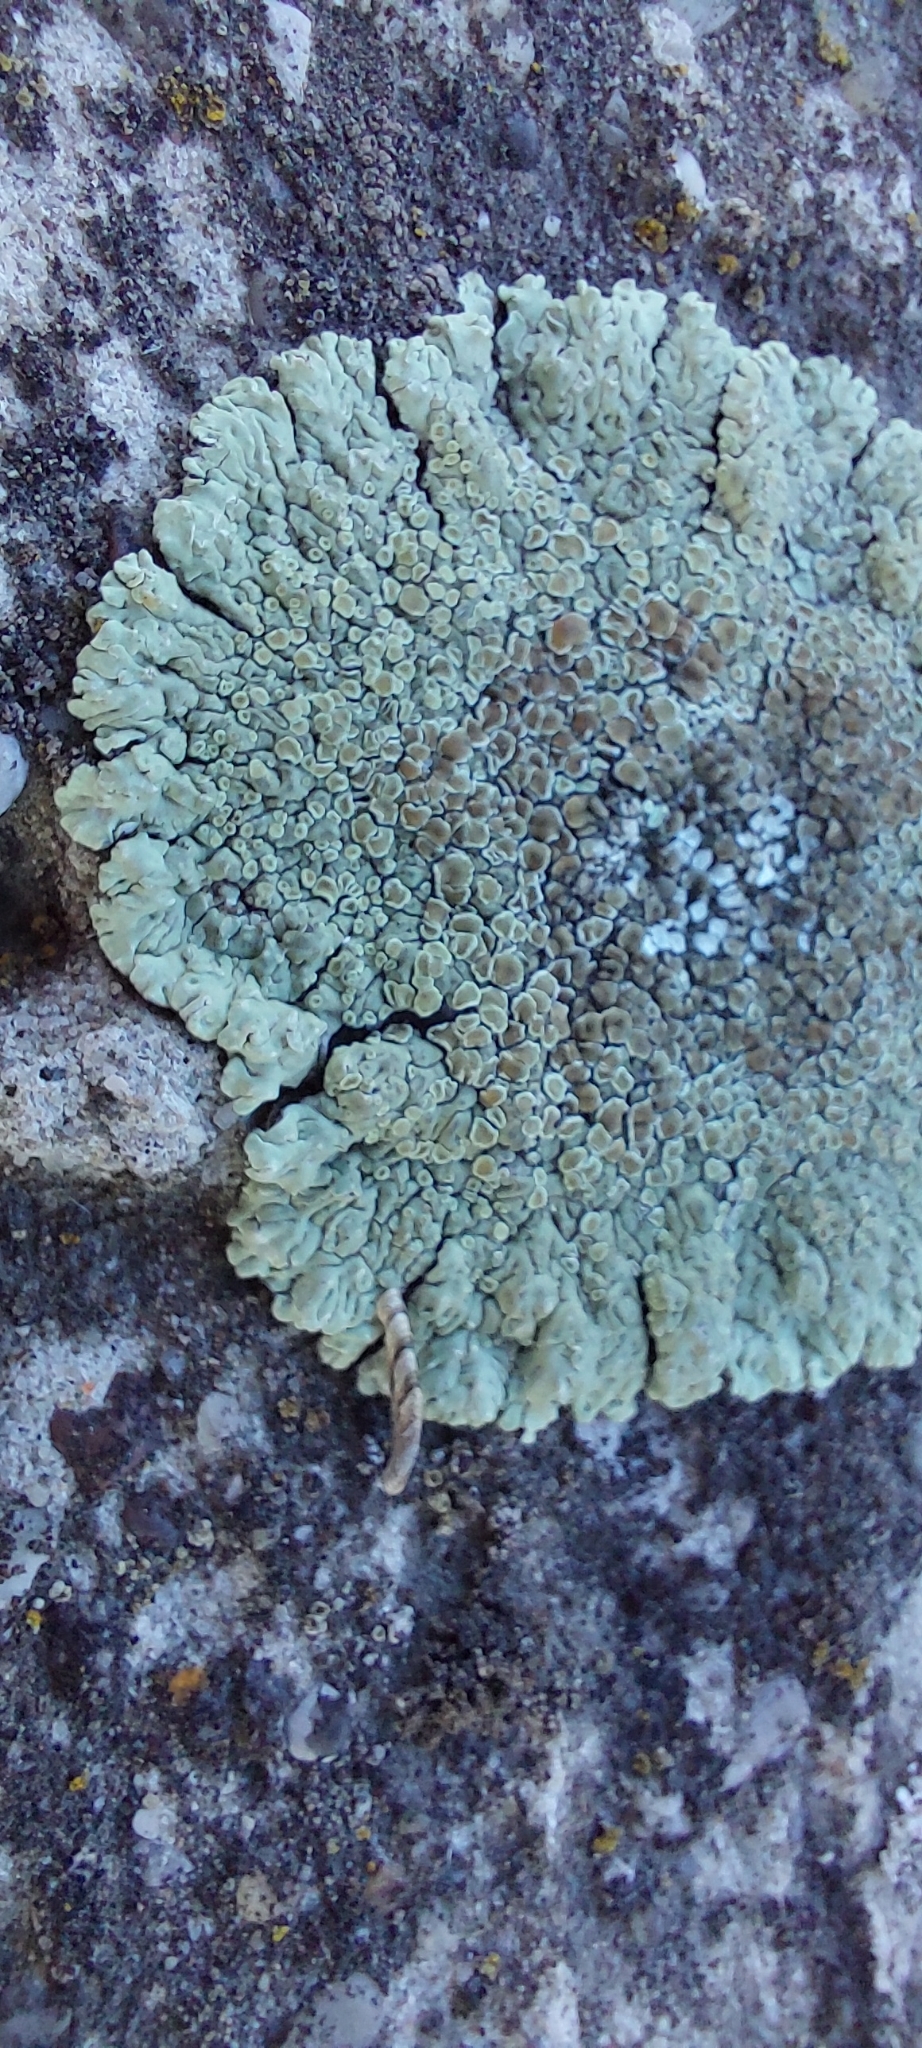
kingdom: Fungi
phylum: Ascomycota
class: Lecanoromycetes
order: Lecanorales
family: Lecanoraceae
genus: Protoparmeliopsis
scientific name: Protoparmeliopsis muralis
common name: Stonewall rim lichen
